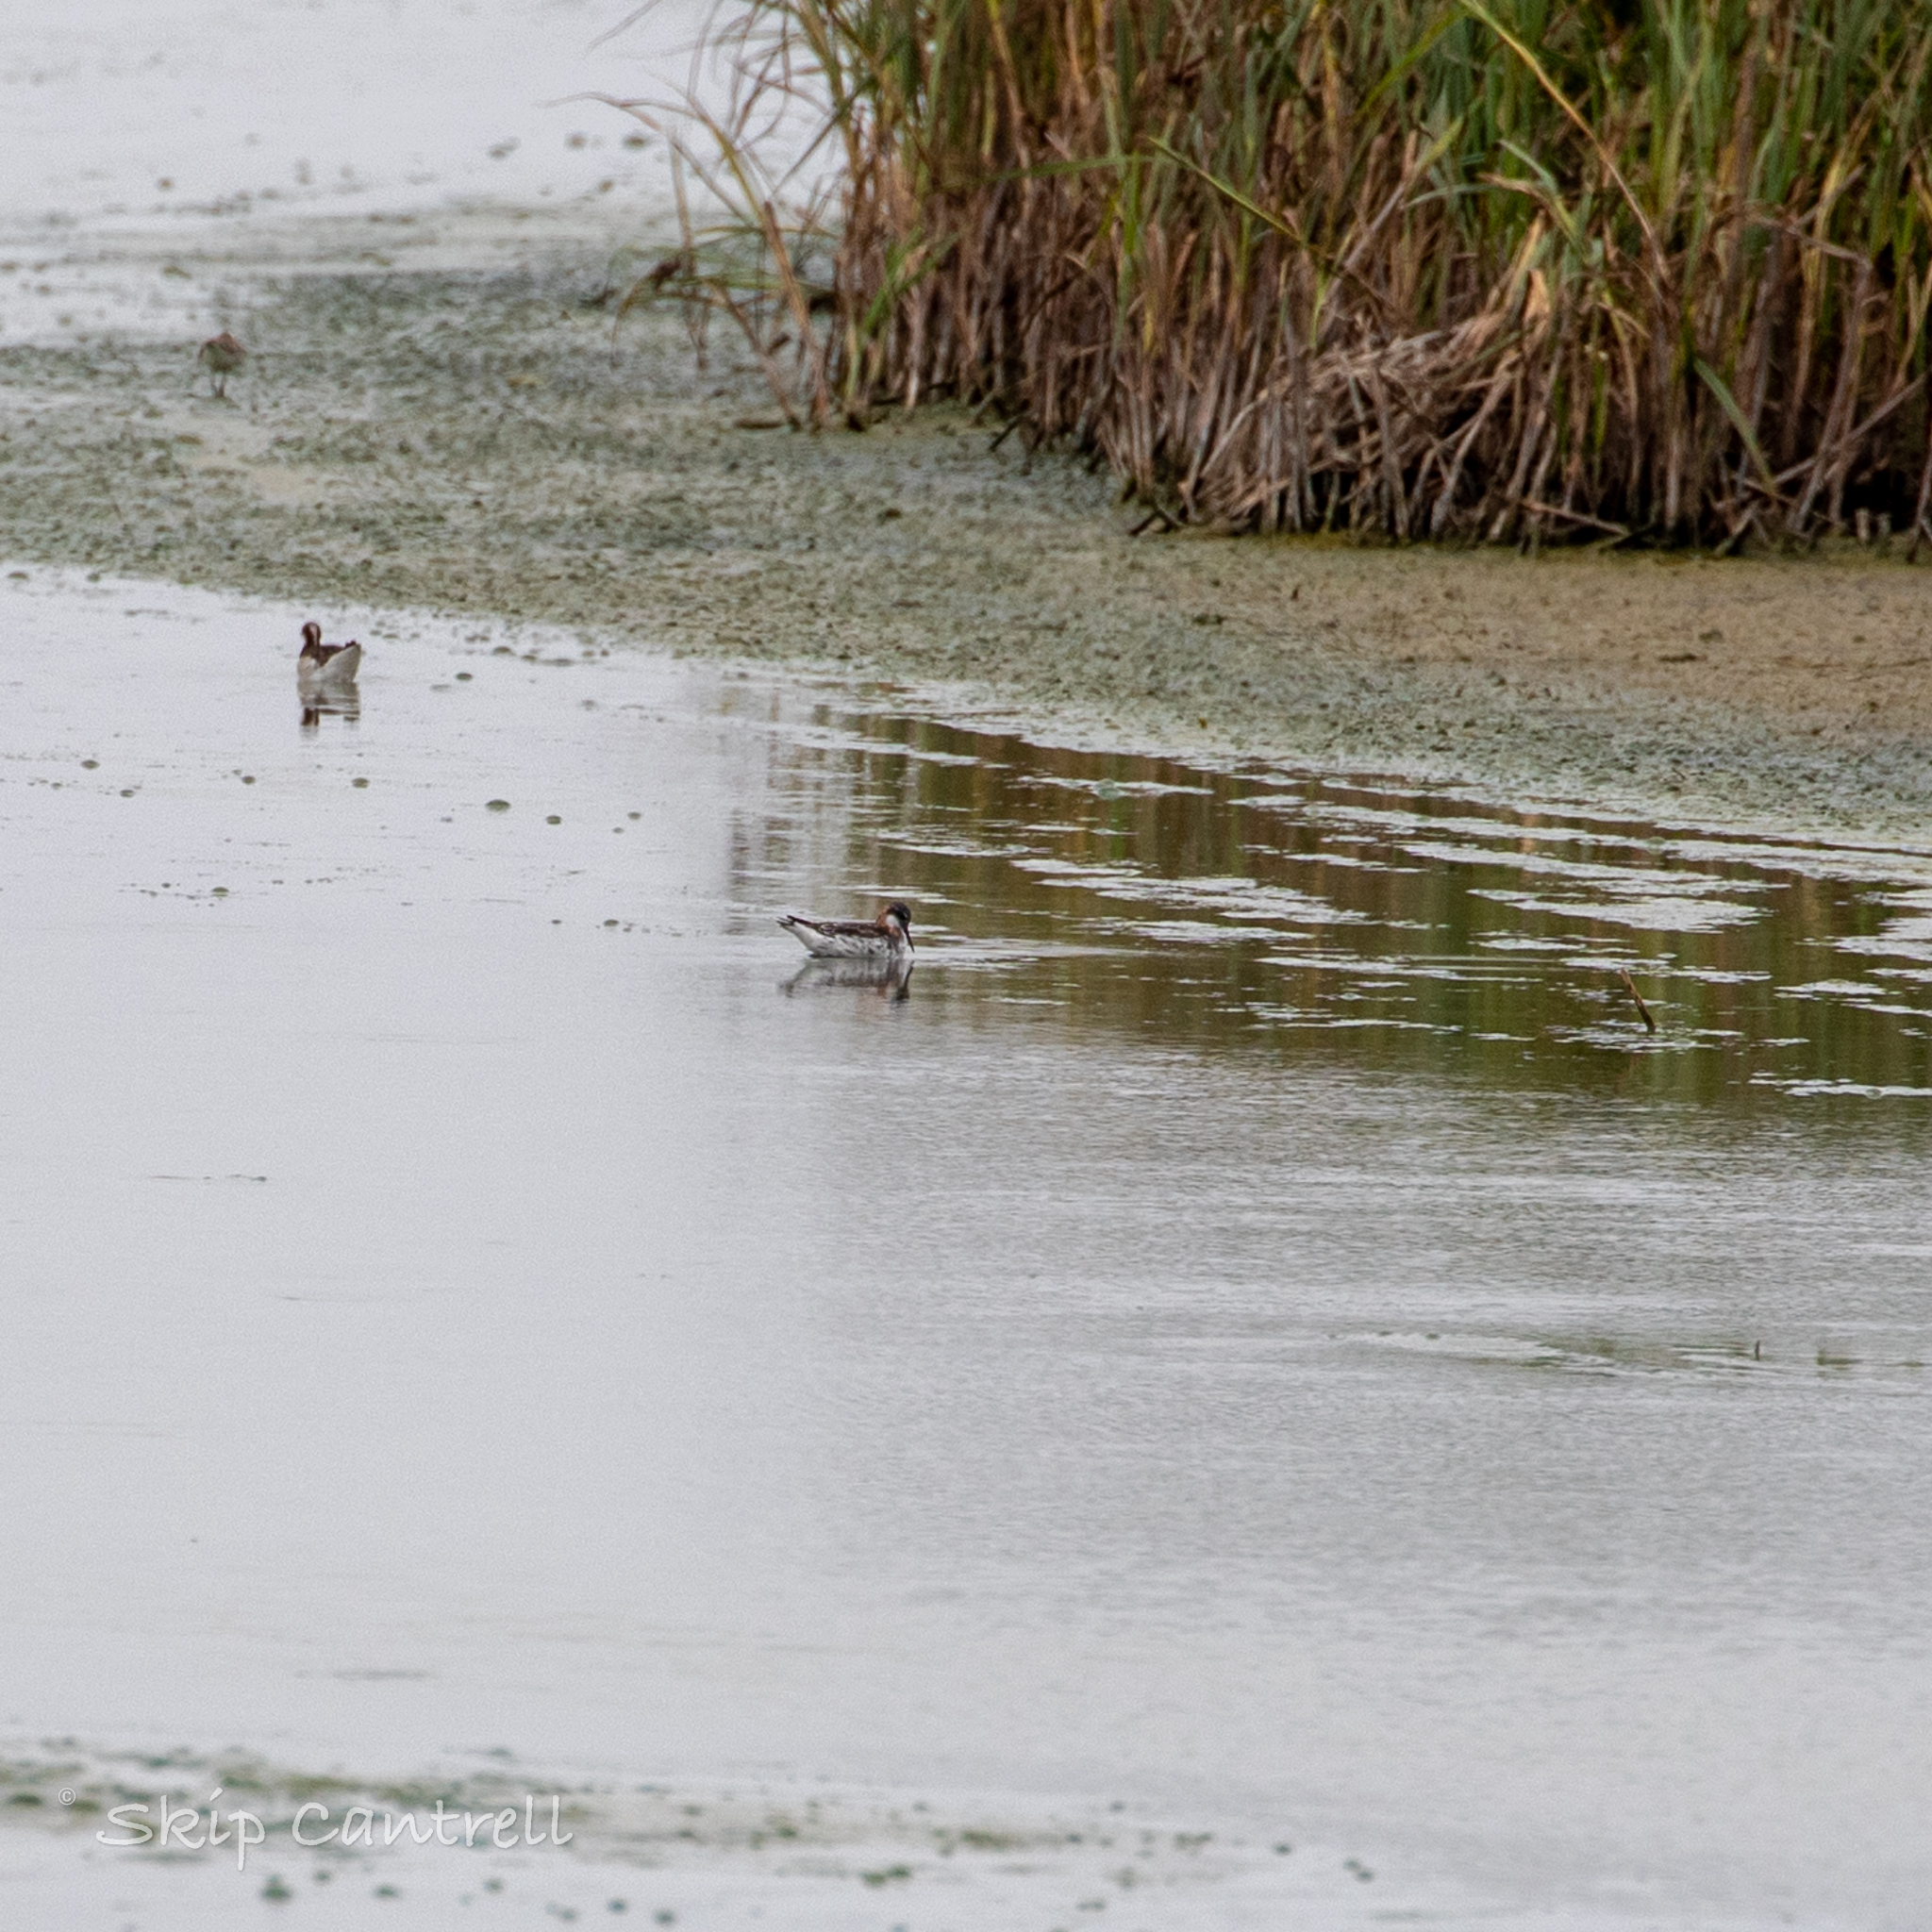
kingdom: Animalia
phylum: Chordata
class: Aves
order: Charadriiformes
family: Scolopacidae
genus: Phalaropus
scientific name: Phalaropus lobatus
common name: Red-necked phalarope
